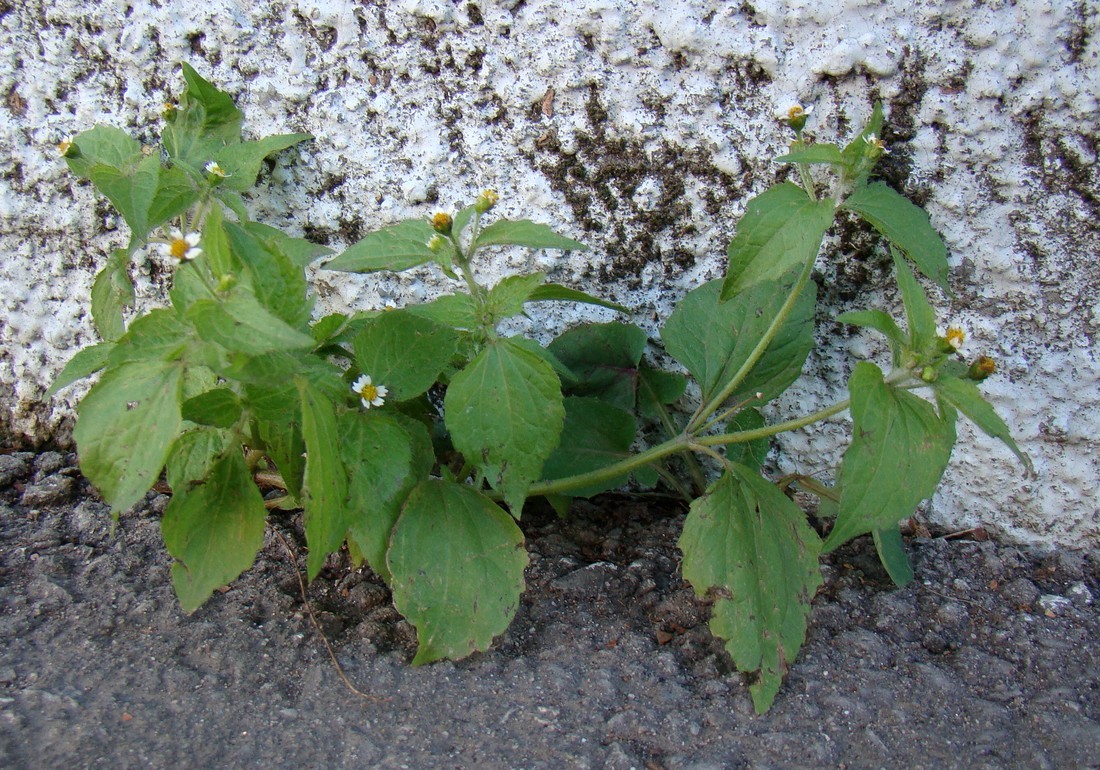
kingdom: Plantae
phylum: Tracheophyta
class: Magnoliopsida
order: Asterales
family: Asteraceae
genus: Galinsoga
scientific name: Galinsoga quadriradiata
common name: Shaggy soldier
